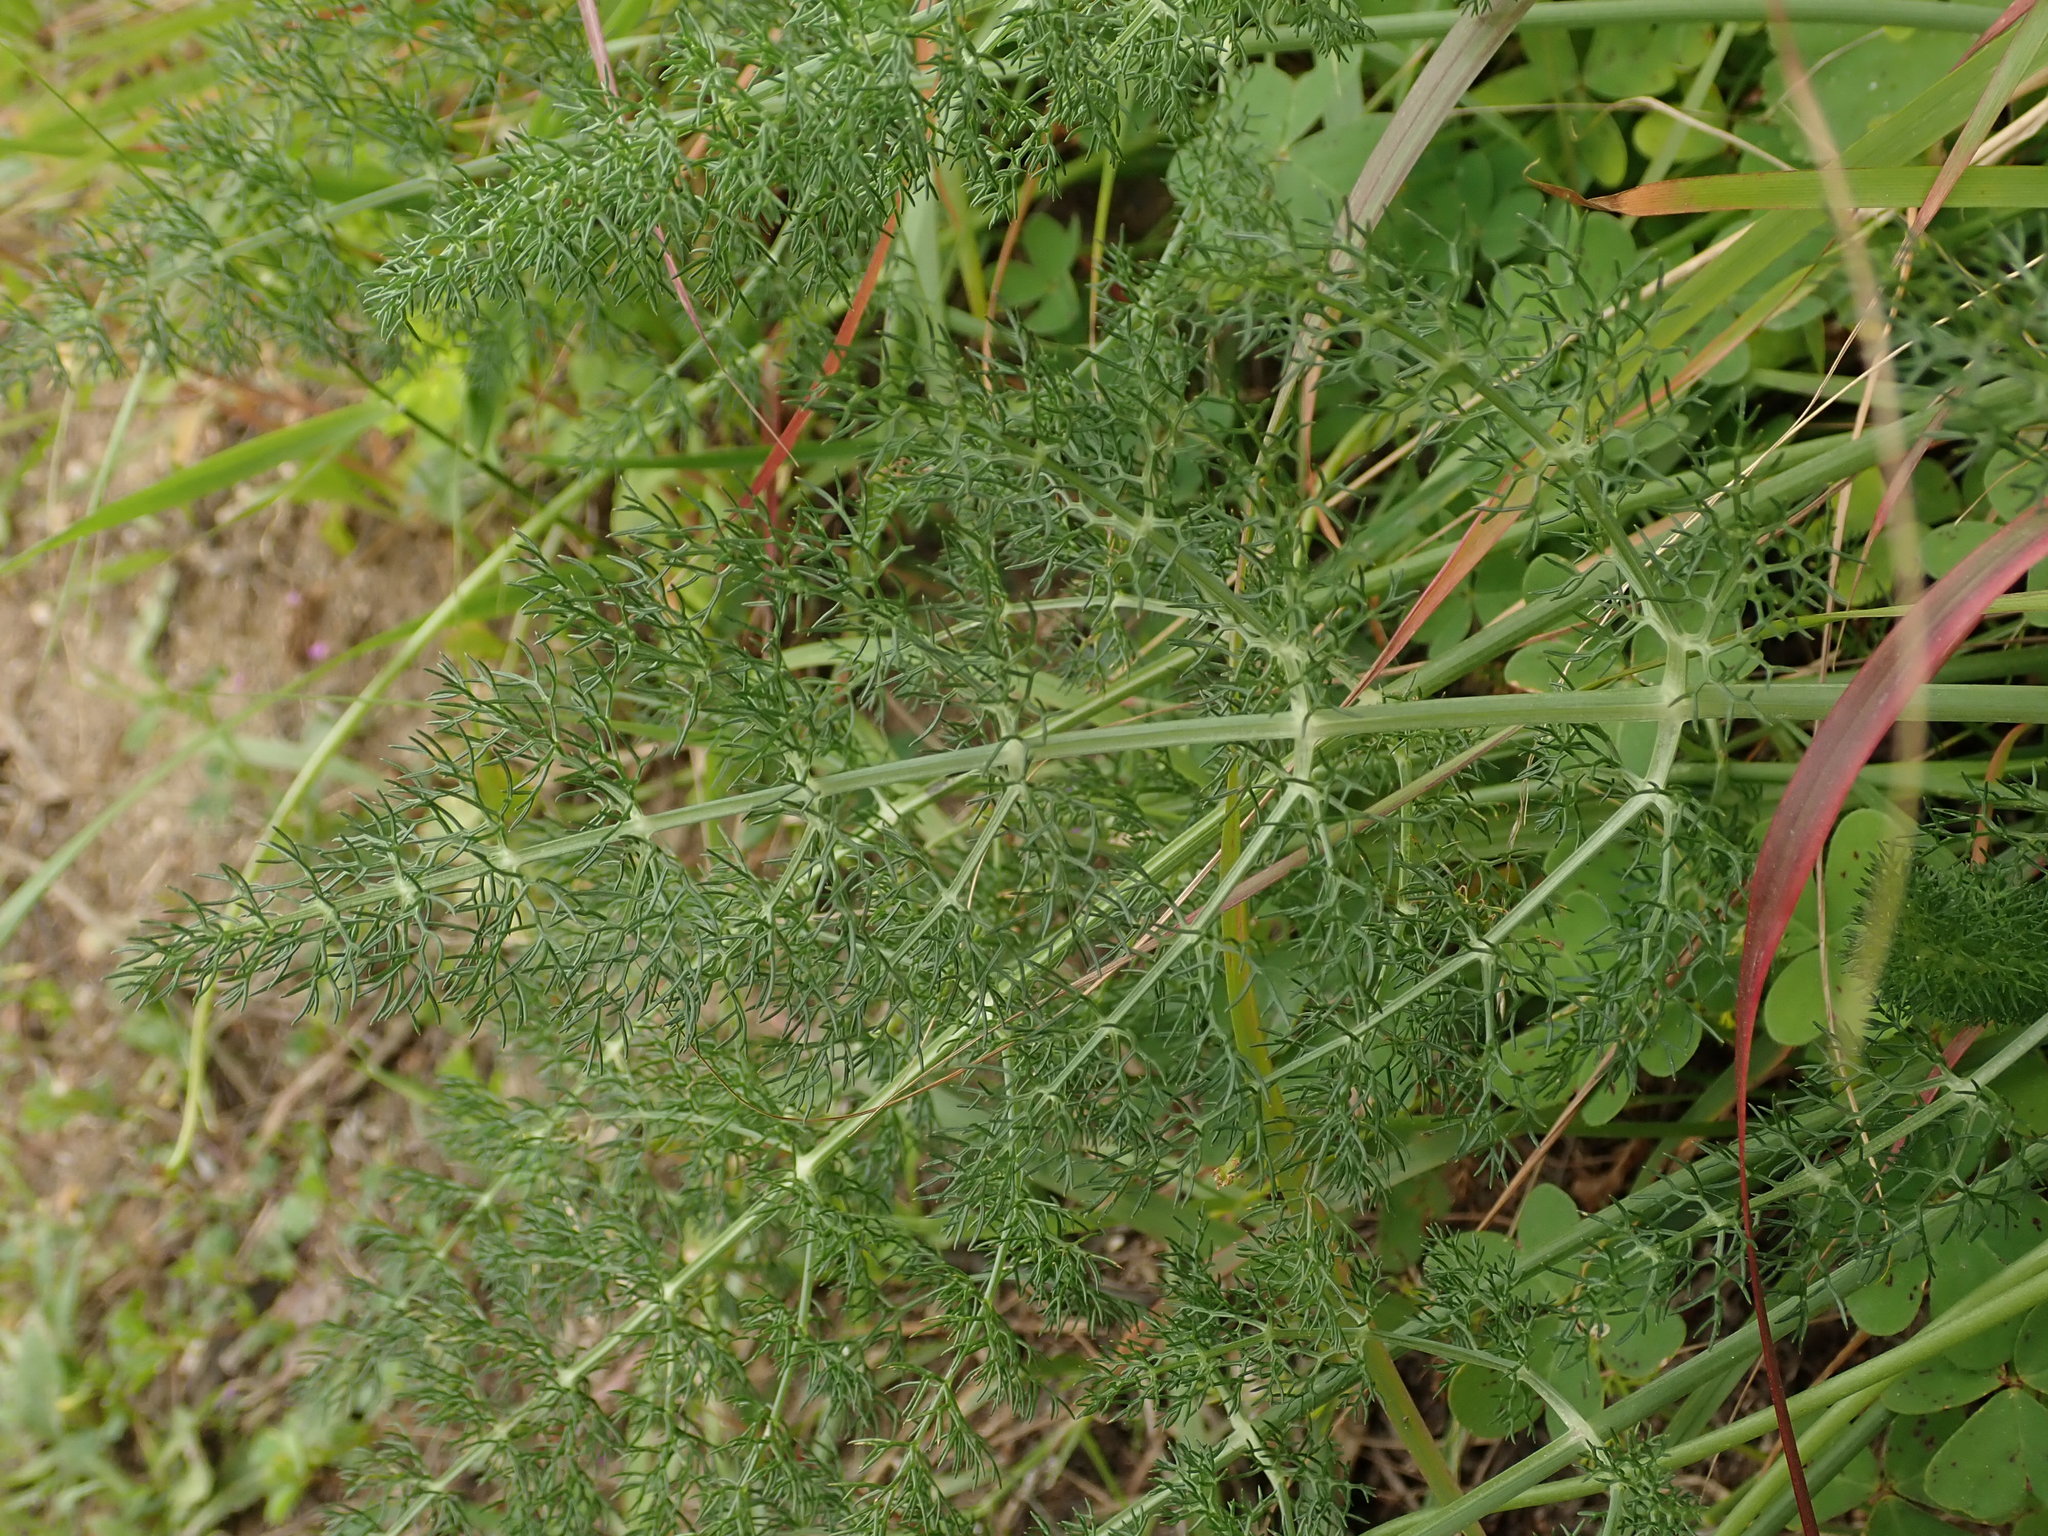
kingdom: Plantae
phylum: Tracheophyta
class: Magnoliopsida
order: Apiales
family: Apiaceae
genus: Foeniculum
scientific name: Foeniculum vulgare
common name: Fennel
